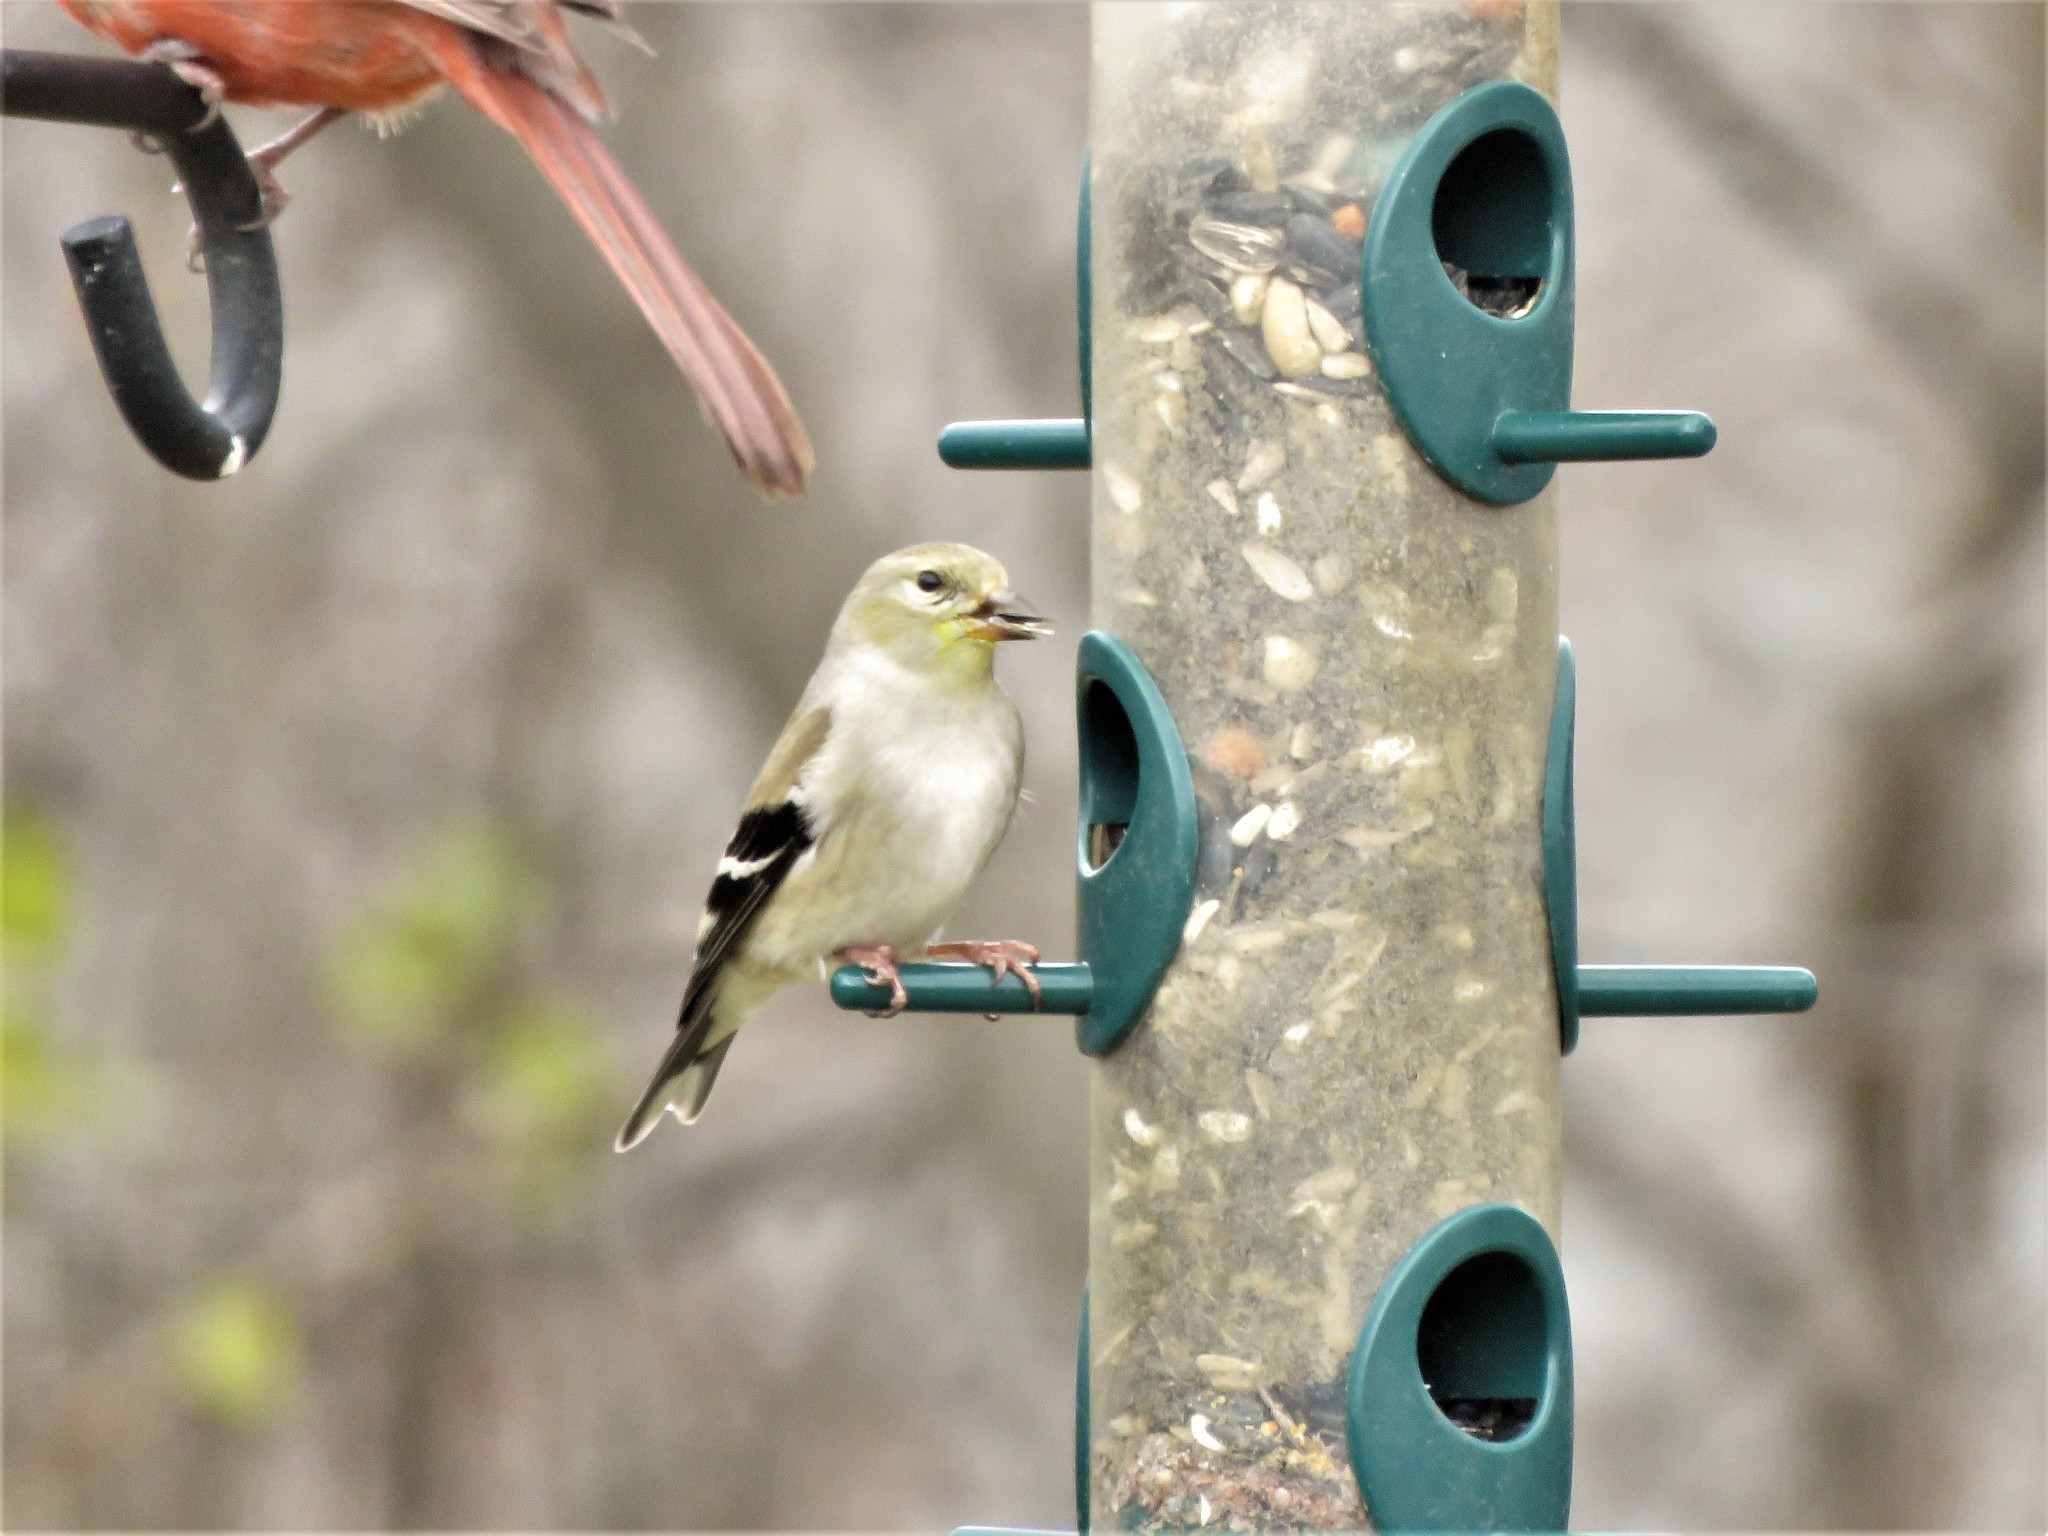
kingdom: Animalia
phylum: Chordata
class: Aves
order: Passeriformes
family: Fringillidae
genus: Spinus
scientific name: Spinus tristis
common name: American goldfinch
